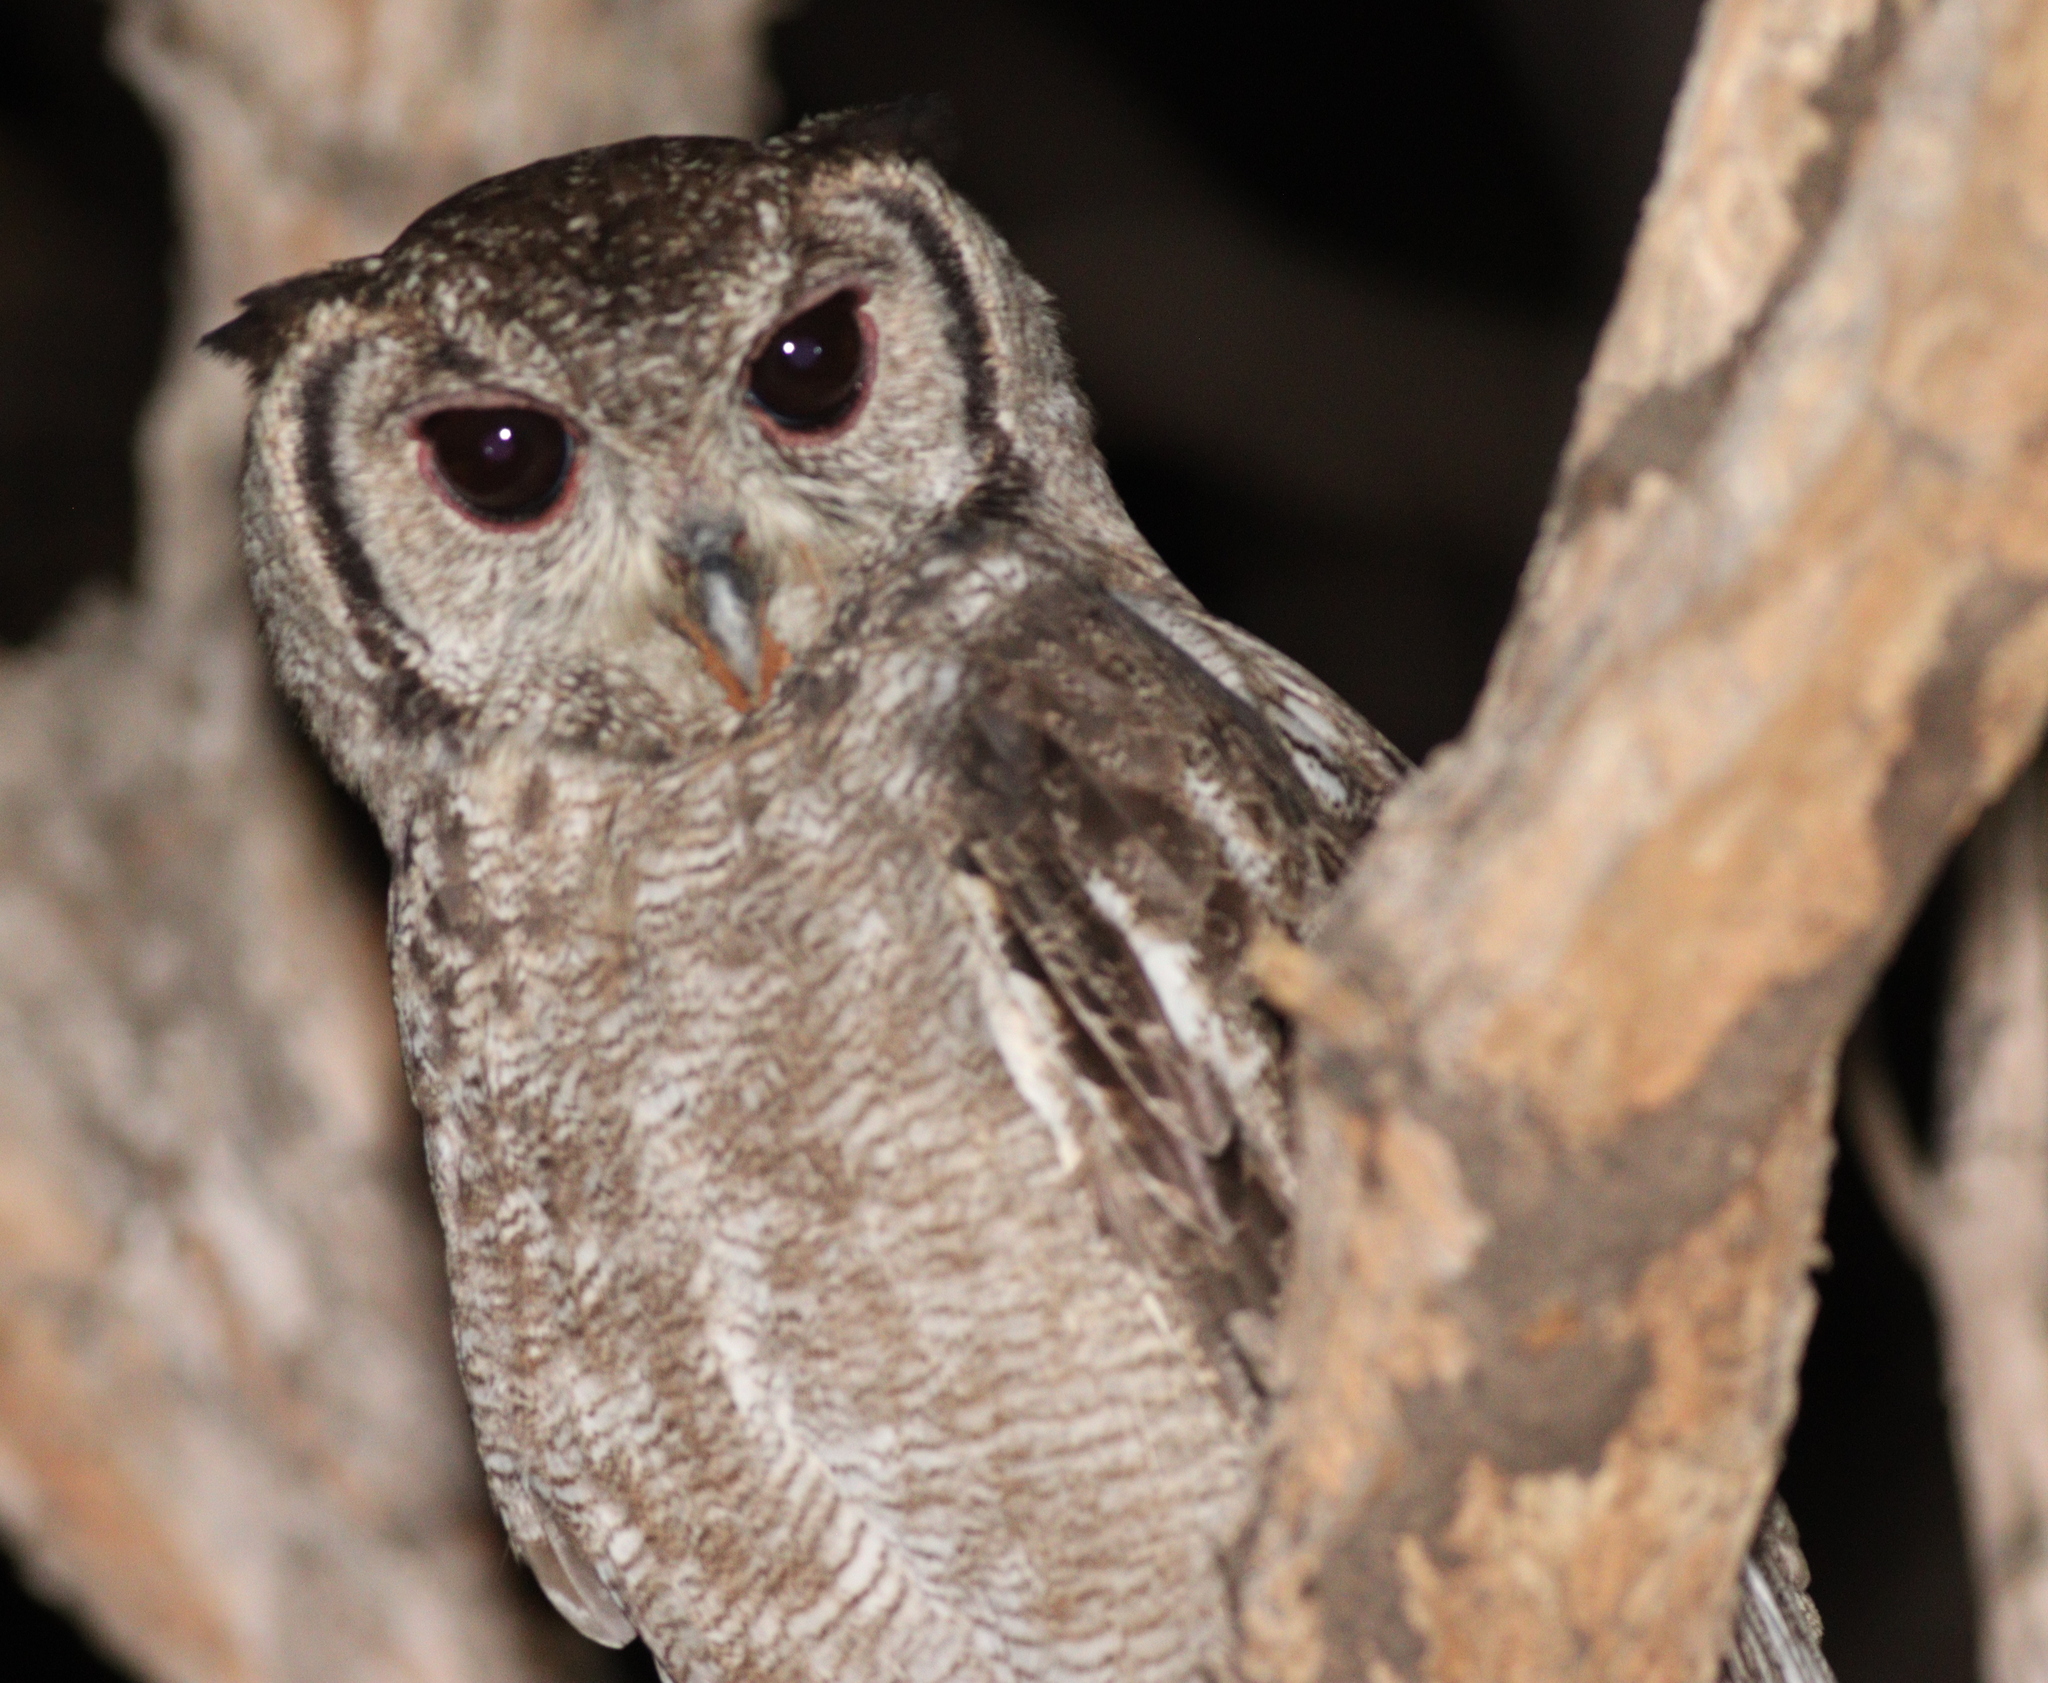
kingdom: Animalia
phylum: Chordata
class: Aves
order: Strigiformes
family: Strigidae
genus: Bubo
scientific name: Bubo cinerascens
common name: Greyish eagle-owl
